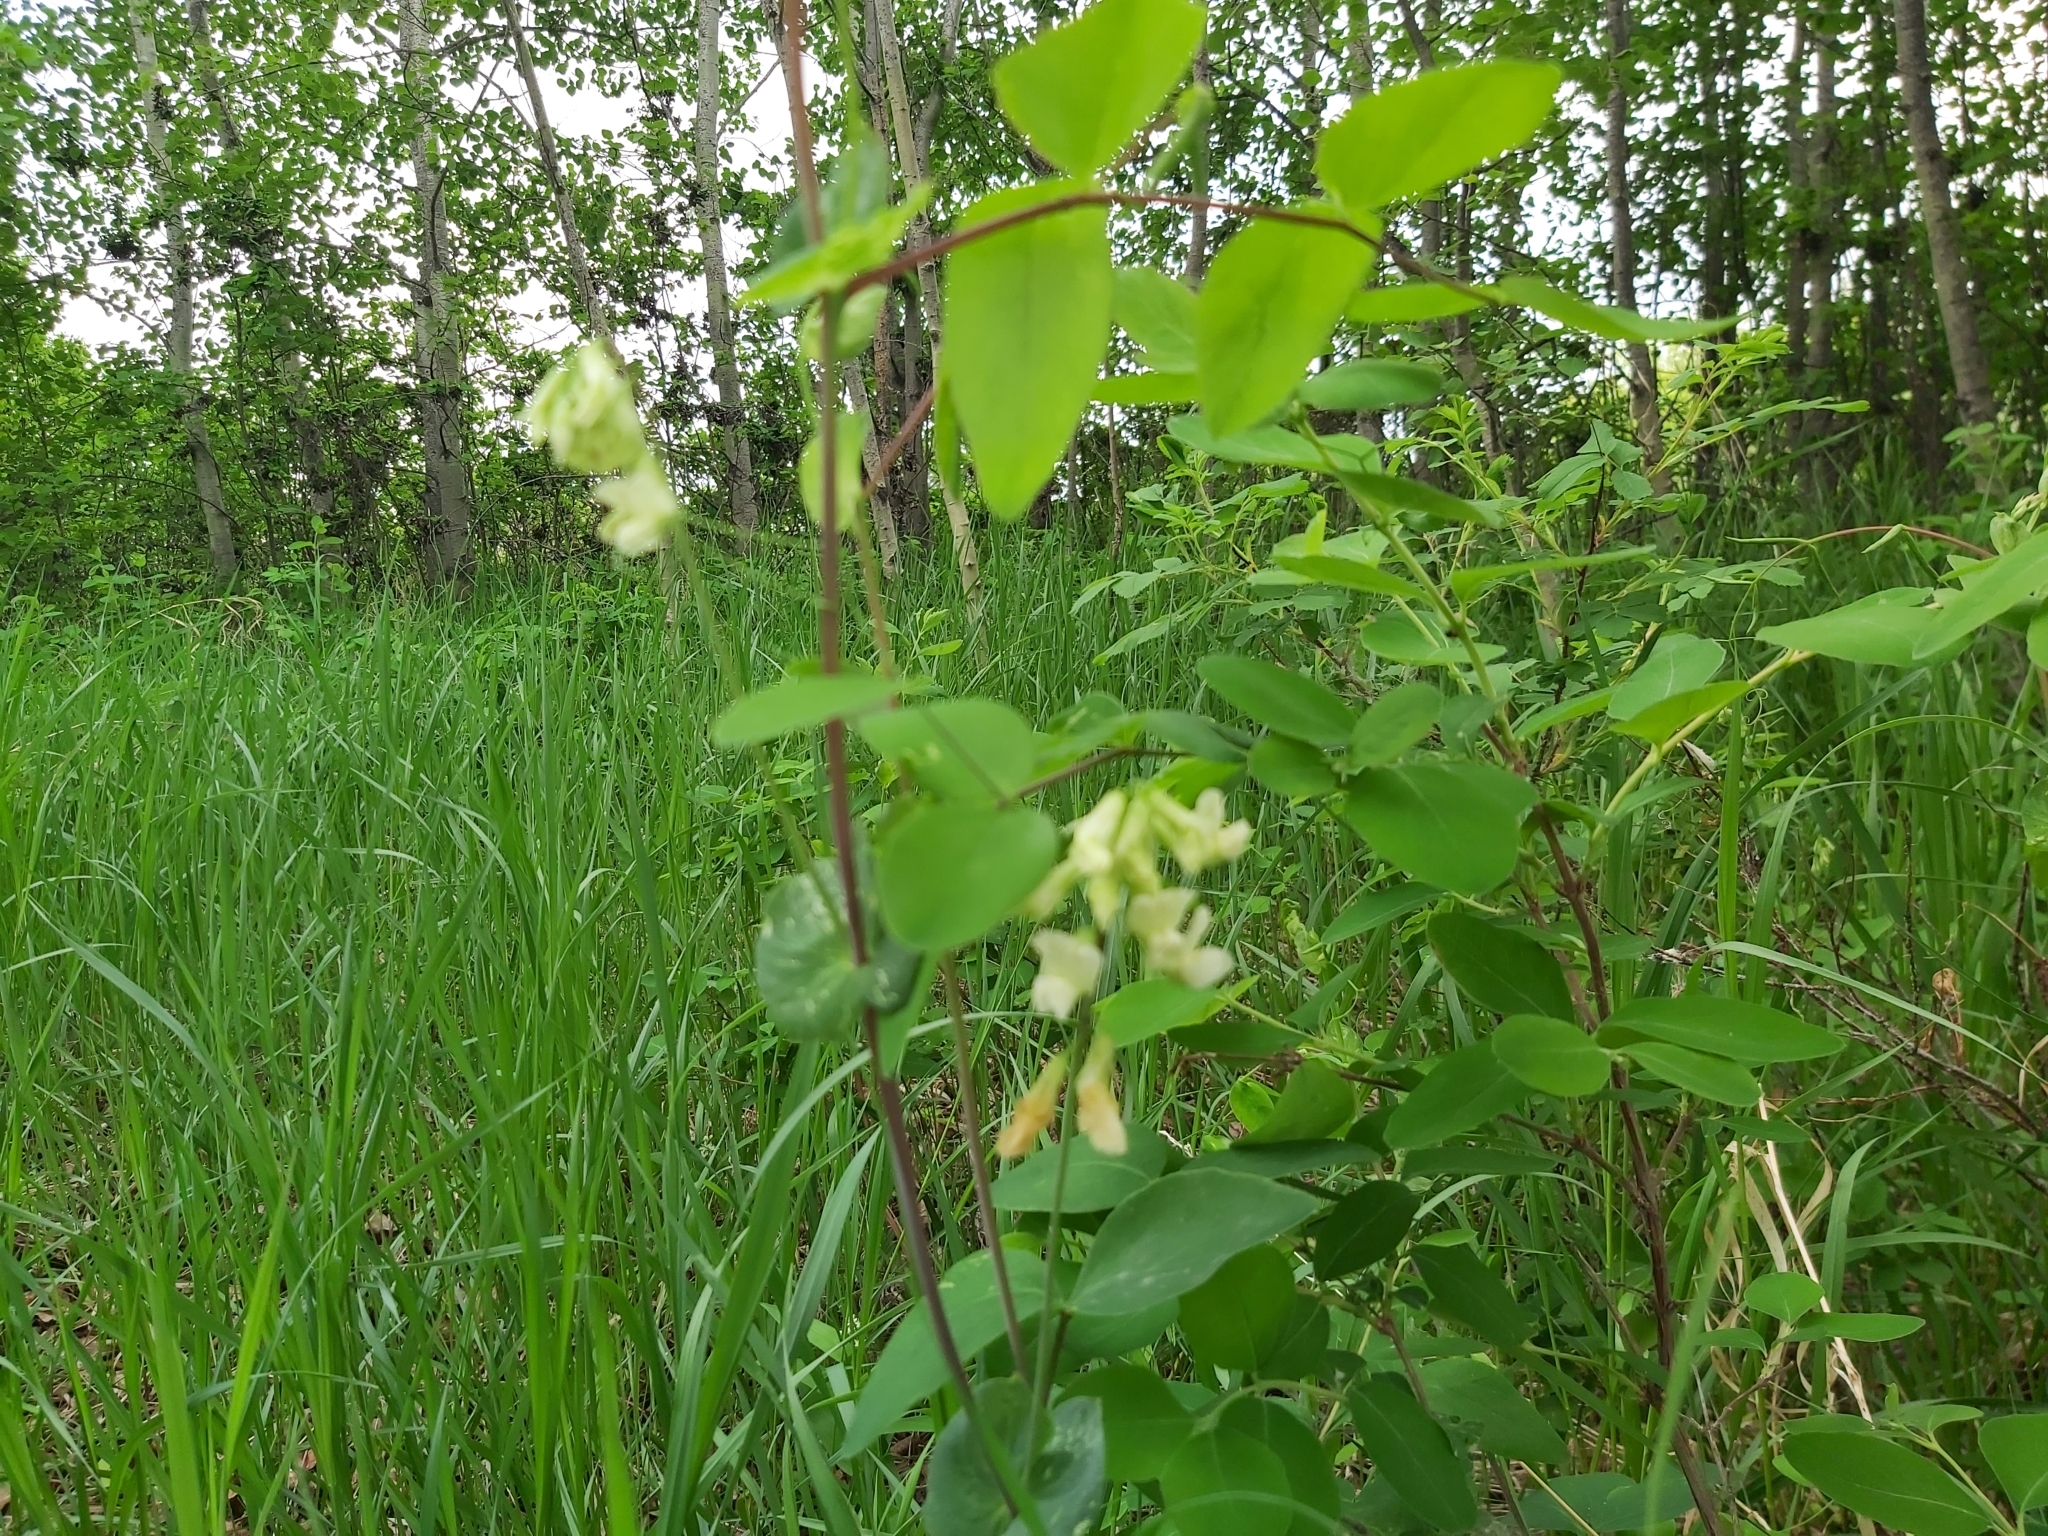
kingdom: Plantae
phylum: Tracheophyta
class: Magnoliopsida
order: Fabales
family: Fabaceae
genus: Lathyrus
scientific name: Lathyrus ochroleucus
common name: Pale vetchling
